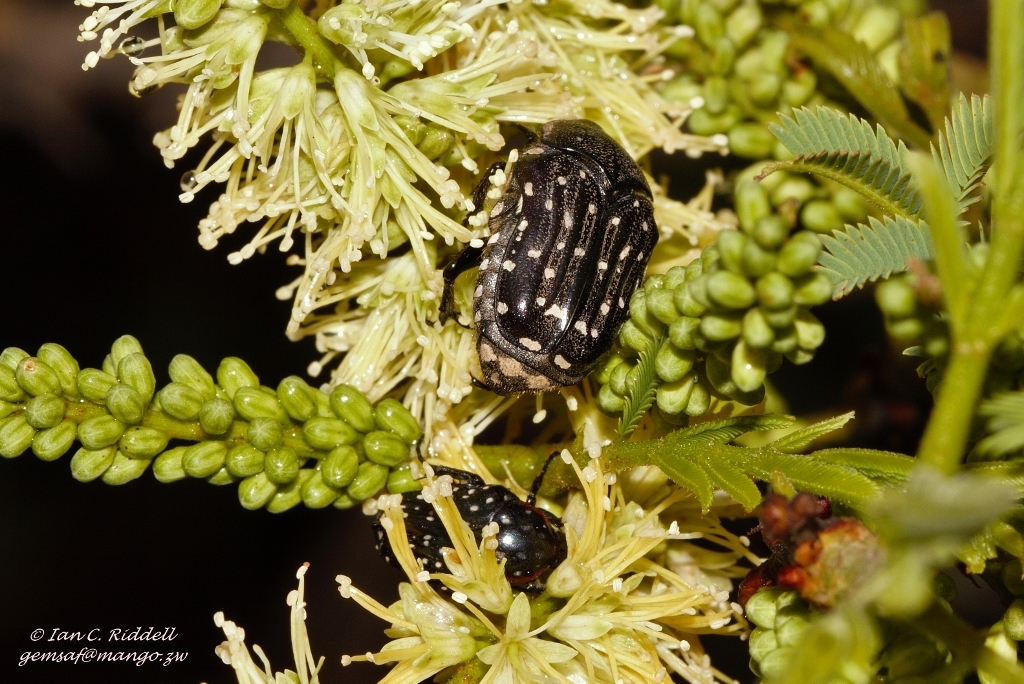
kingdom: Animalia
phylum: Arthropoda
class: Insecta
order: Coleoptera
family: Scarabaeidae
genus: Clinteroides
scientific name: Clinteroides cariosa
